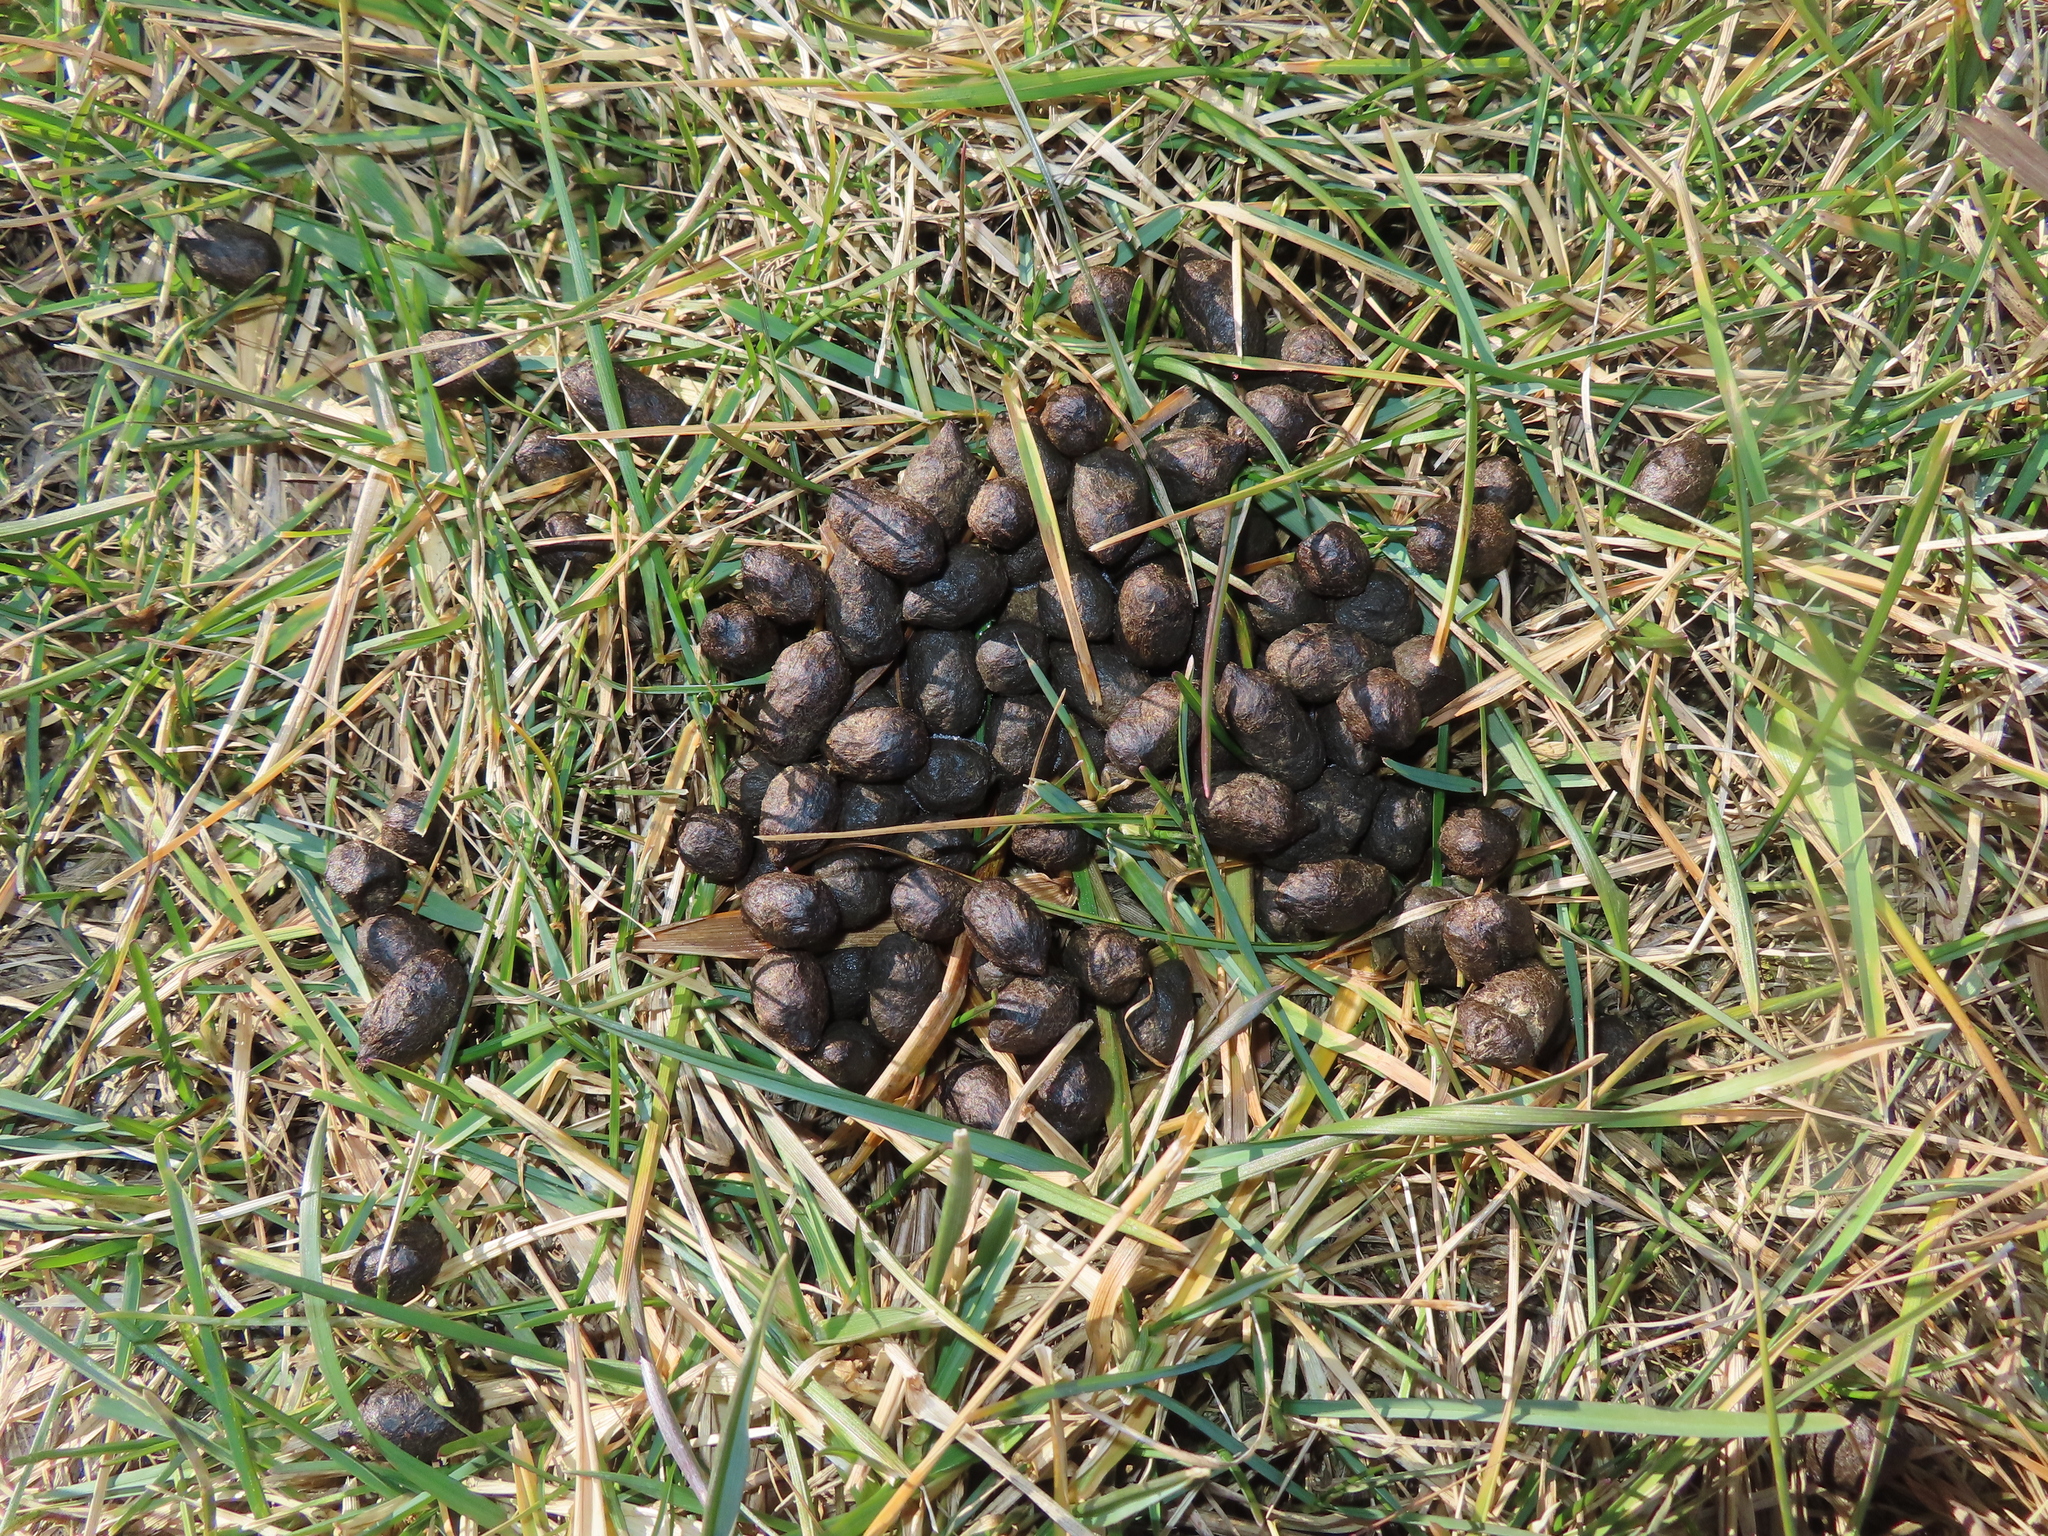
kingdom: Animalia
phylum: Chordata
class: Mammalia
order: Artiodactyla
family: Cervidae
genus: Odocoileus
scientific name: Odocoileus virginianus
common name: White-tailed deer
